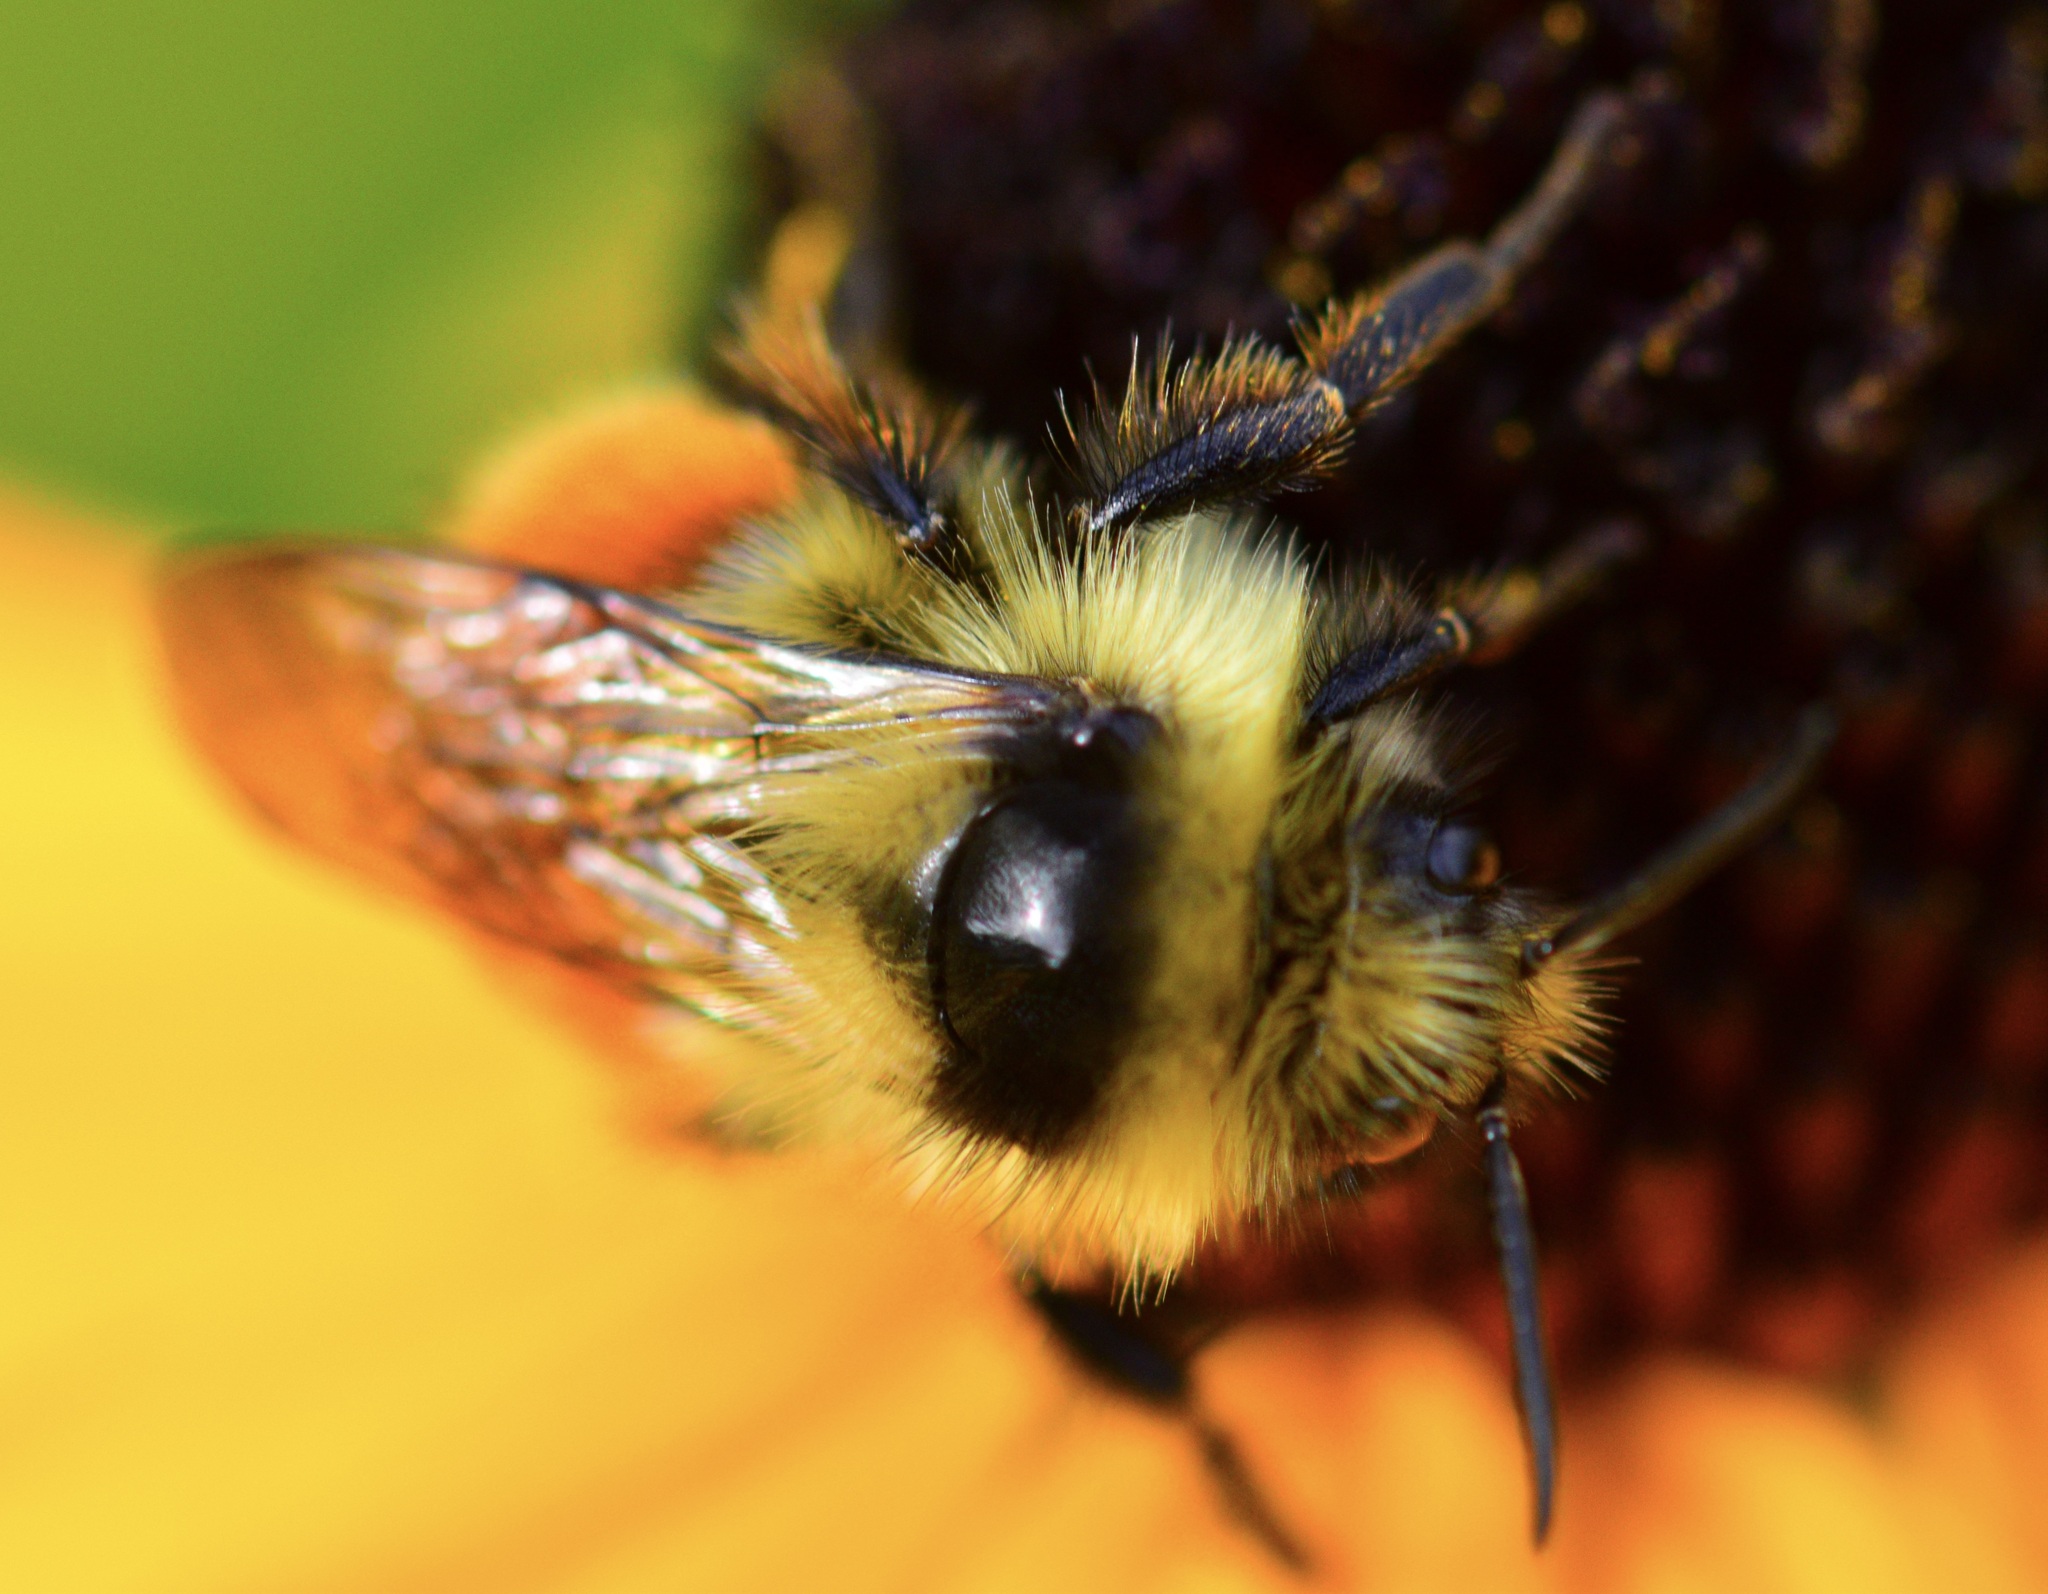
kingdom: Animalia
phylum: Arthropoda
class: Insecta
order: Hymenoptera
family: Apidae
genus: Bombus
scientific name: Bombus ternarius
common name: Tri-colored bumble bee
